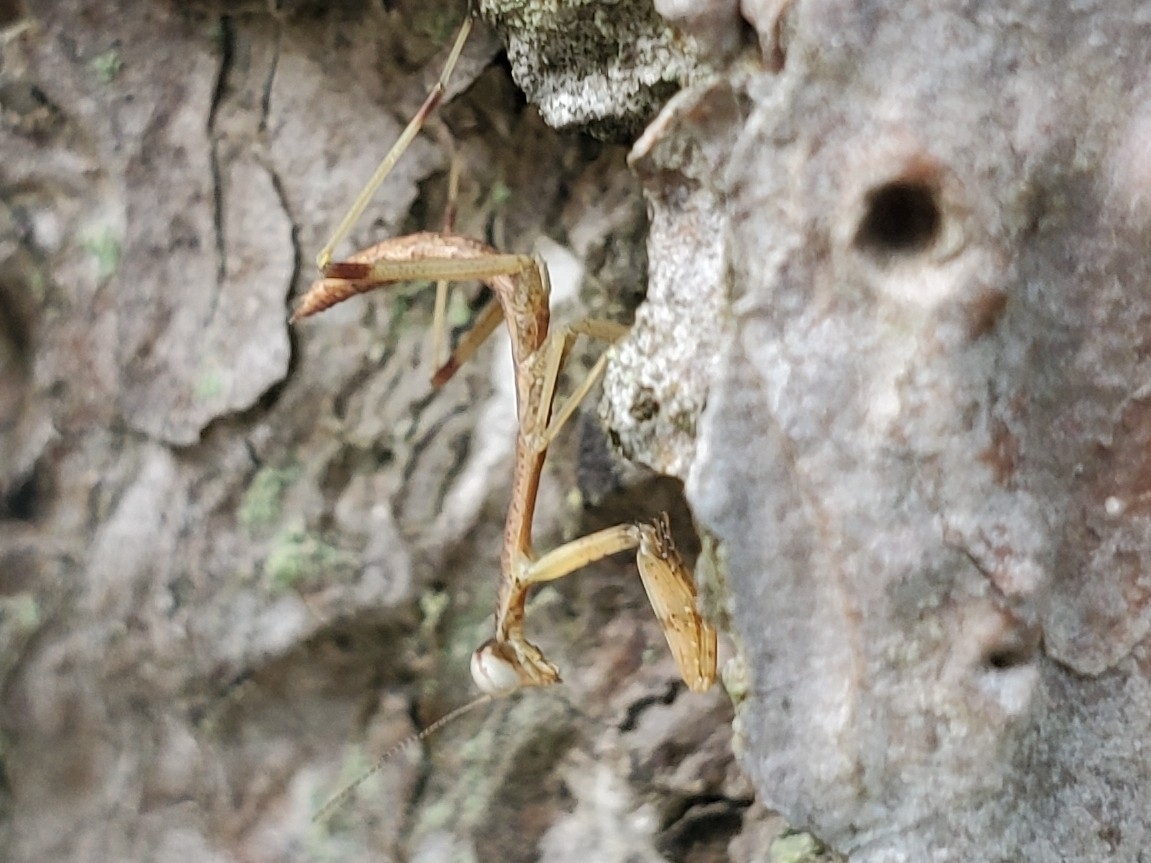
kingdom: Animalia
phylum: Arthropoda
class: Insecta
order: Mantodea
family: Mantidae
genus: Stagmomantis
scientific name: Stagmomantis carolina
